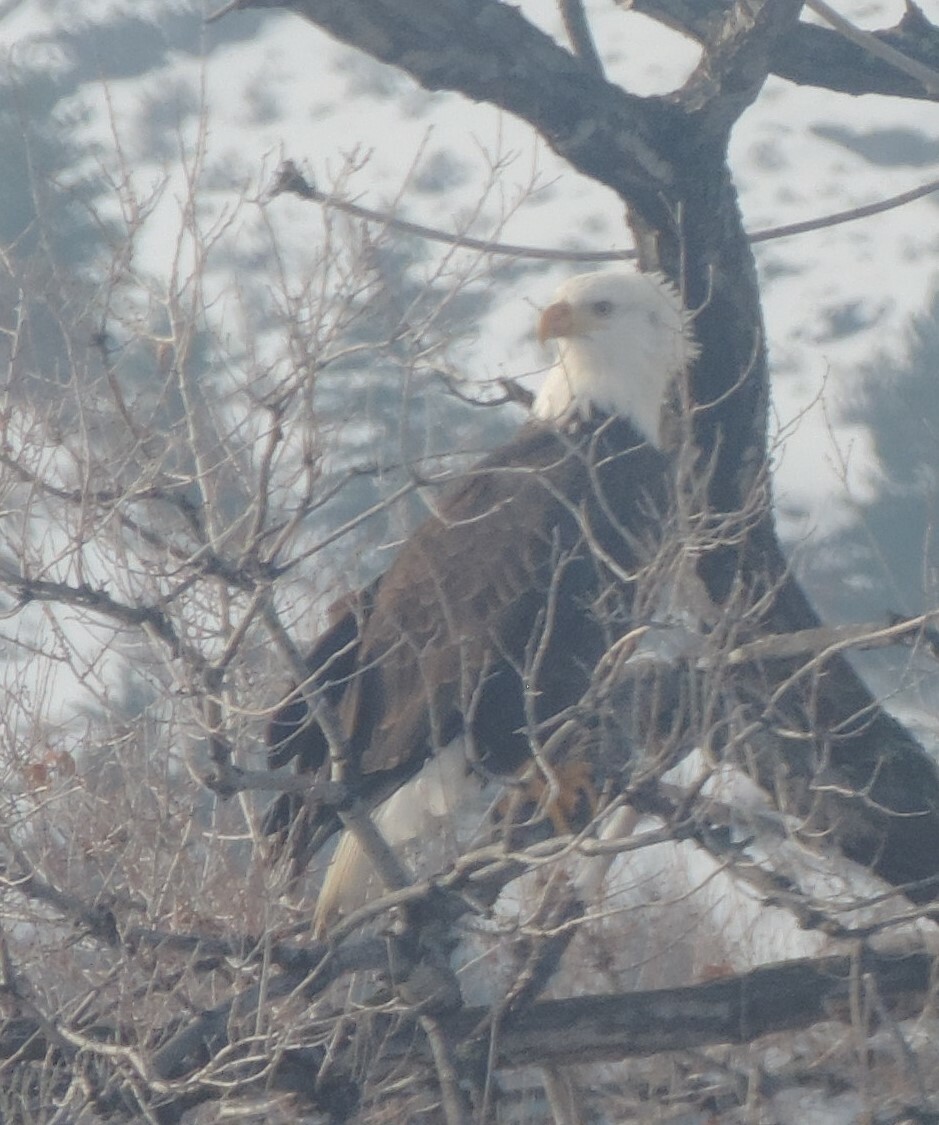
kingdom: Animalia
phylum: Chordata
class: Aves
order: Accipitriformes
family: Accipitridae
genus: Haliaeetus
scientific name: Haliaeetus leucocephalus
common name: Bald eagle
